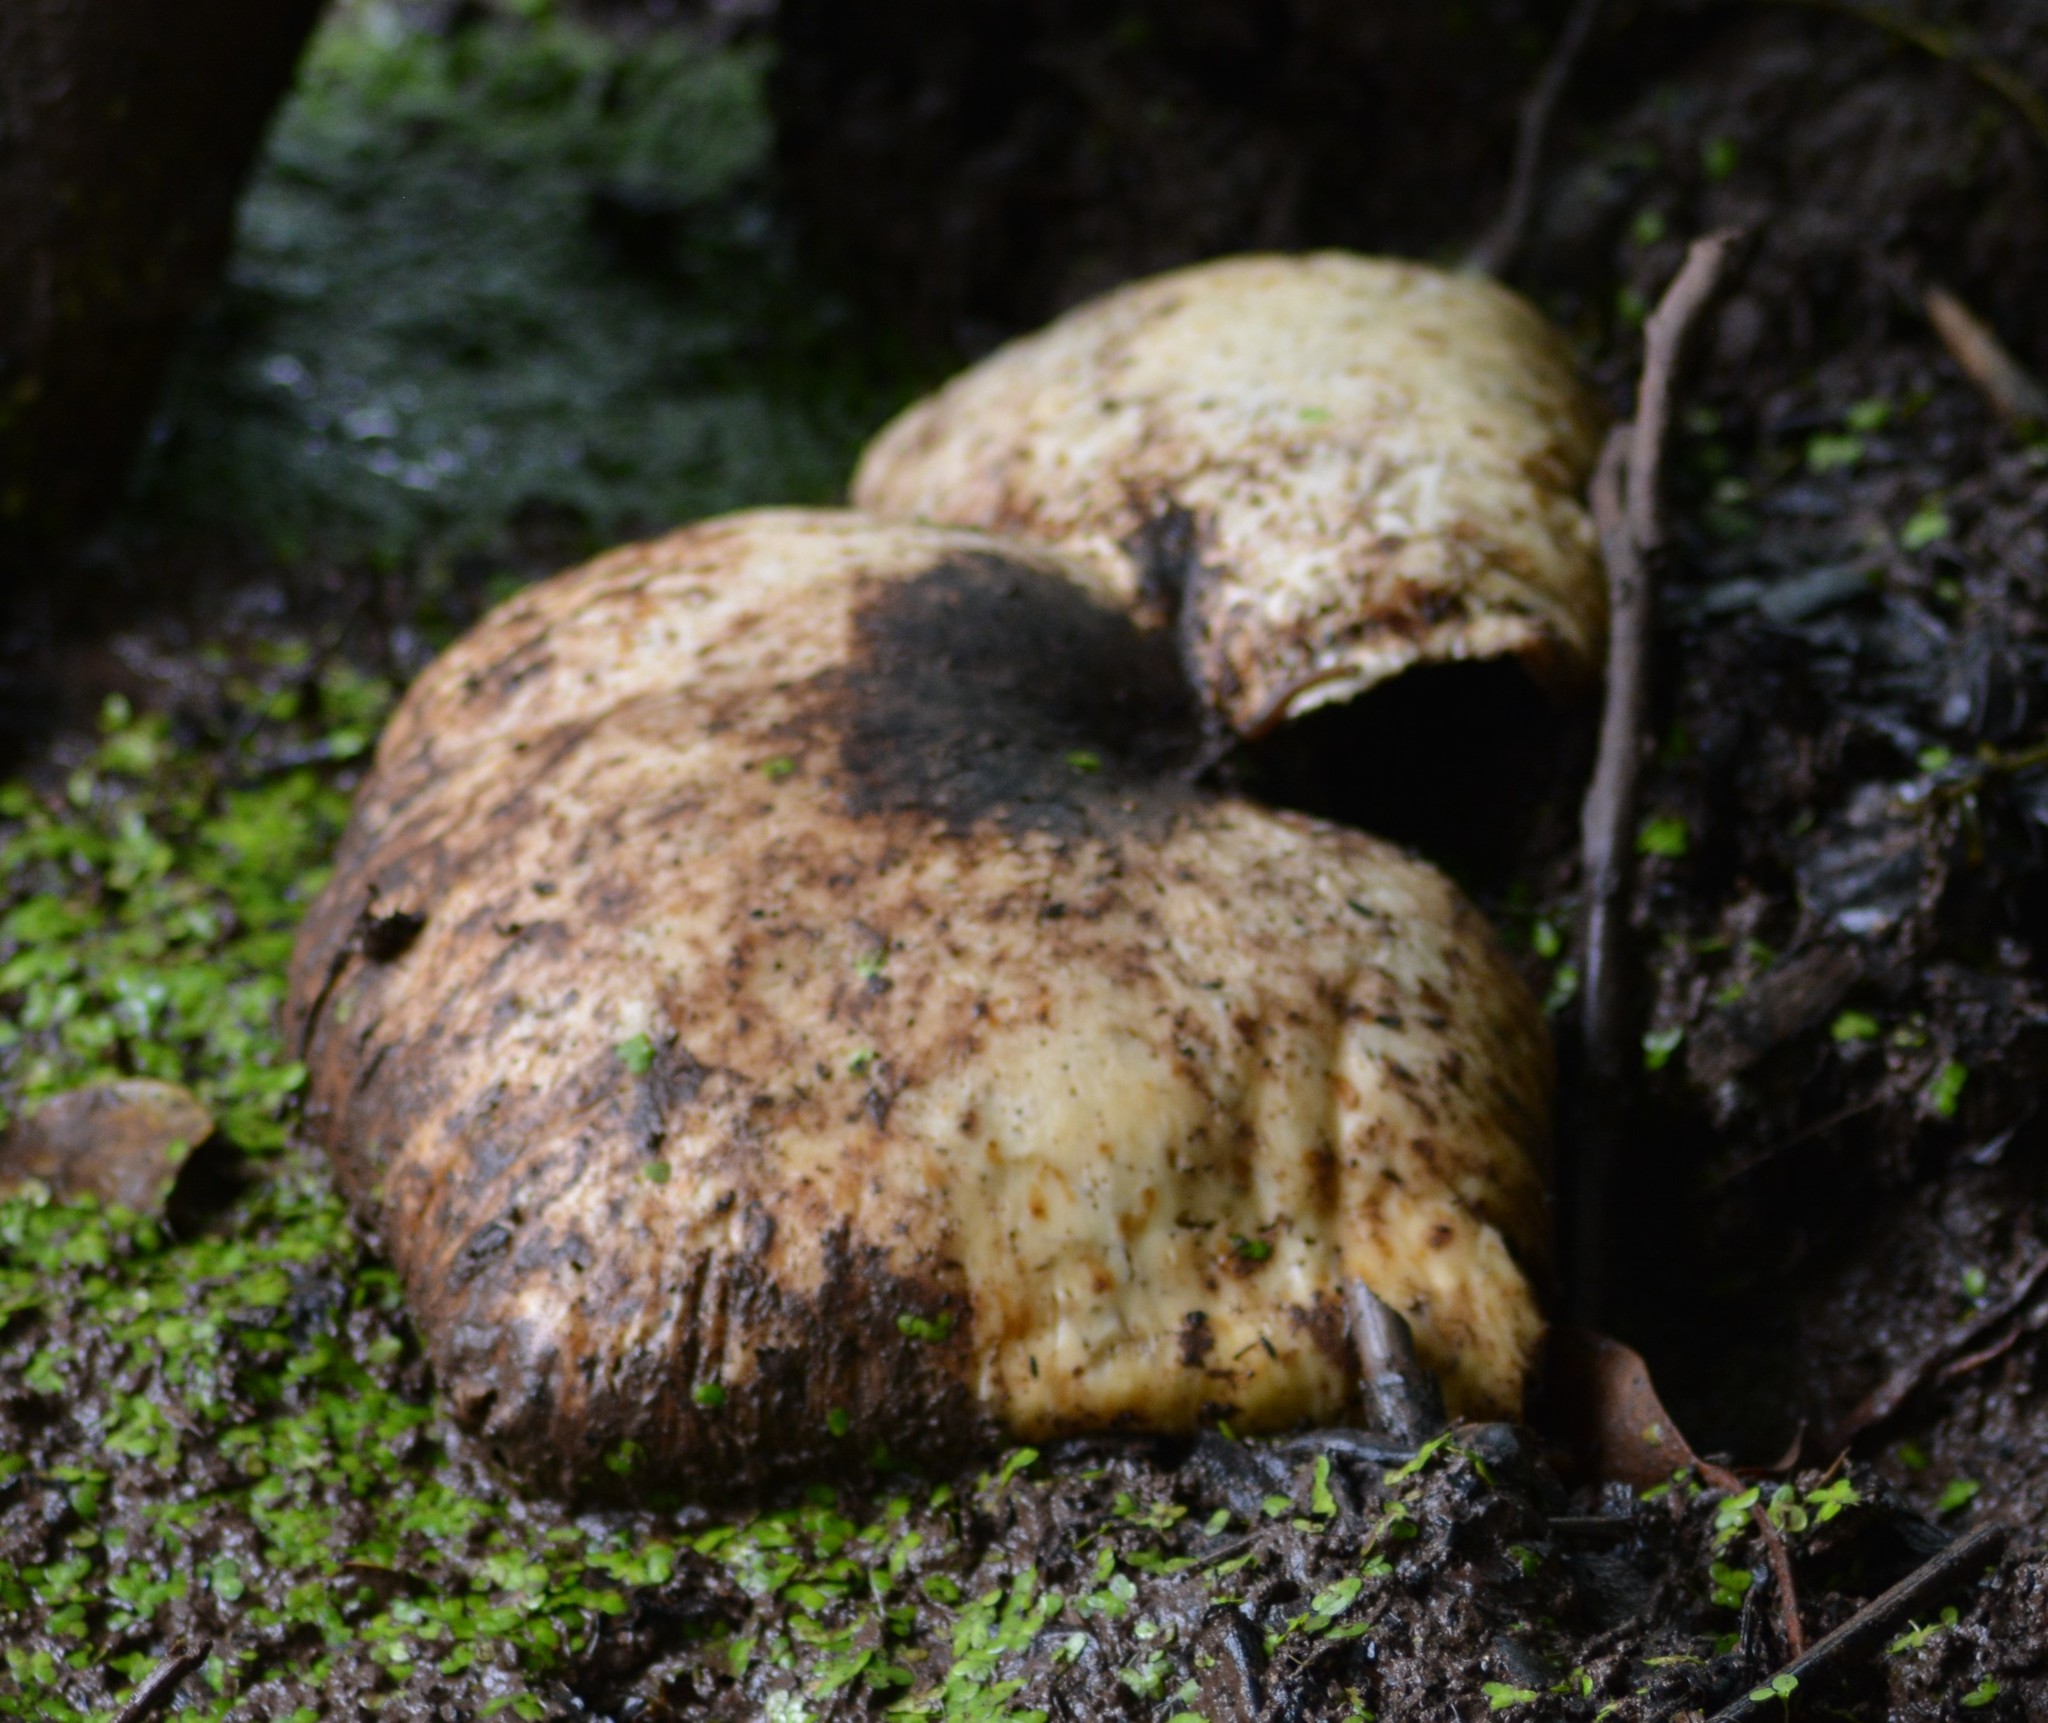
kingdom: Fungi
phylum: Basidiomycota
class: Agaricomycetes
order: Polyporales
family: Polyporaceae
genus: Cerioporus
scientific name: Cerioporus squamosus
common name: Dryad's saddle
